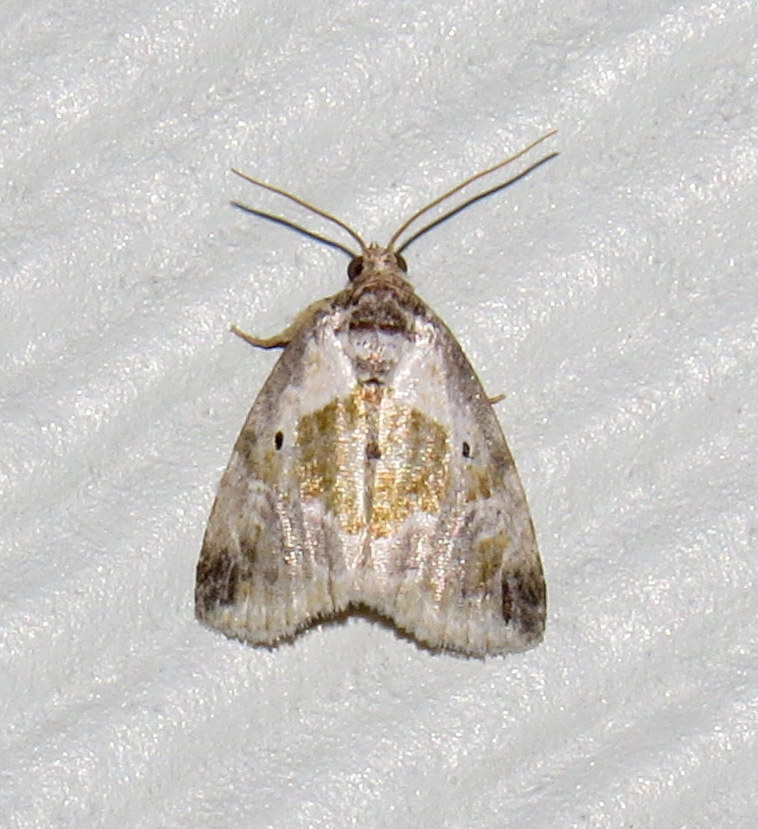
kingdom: Animalia
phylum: Arthropoda
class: Insecta
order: Lepidoptera
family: Noctuidae
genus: Maliattha
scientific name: Maliattha synochitis
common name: Black-dotted glyph
